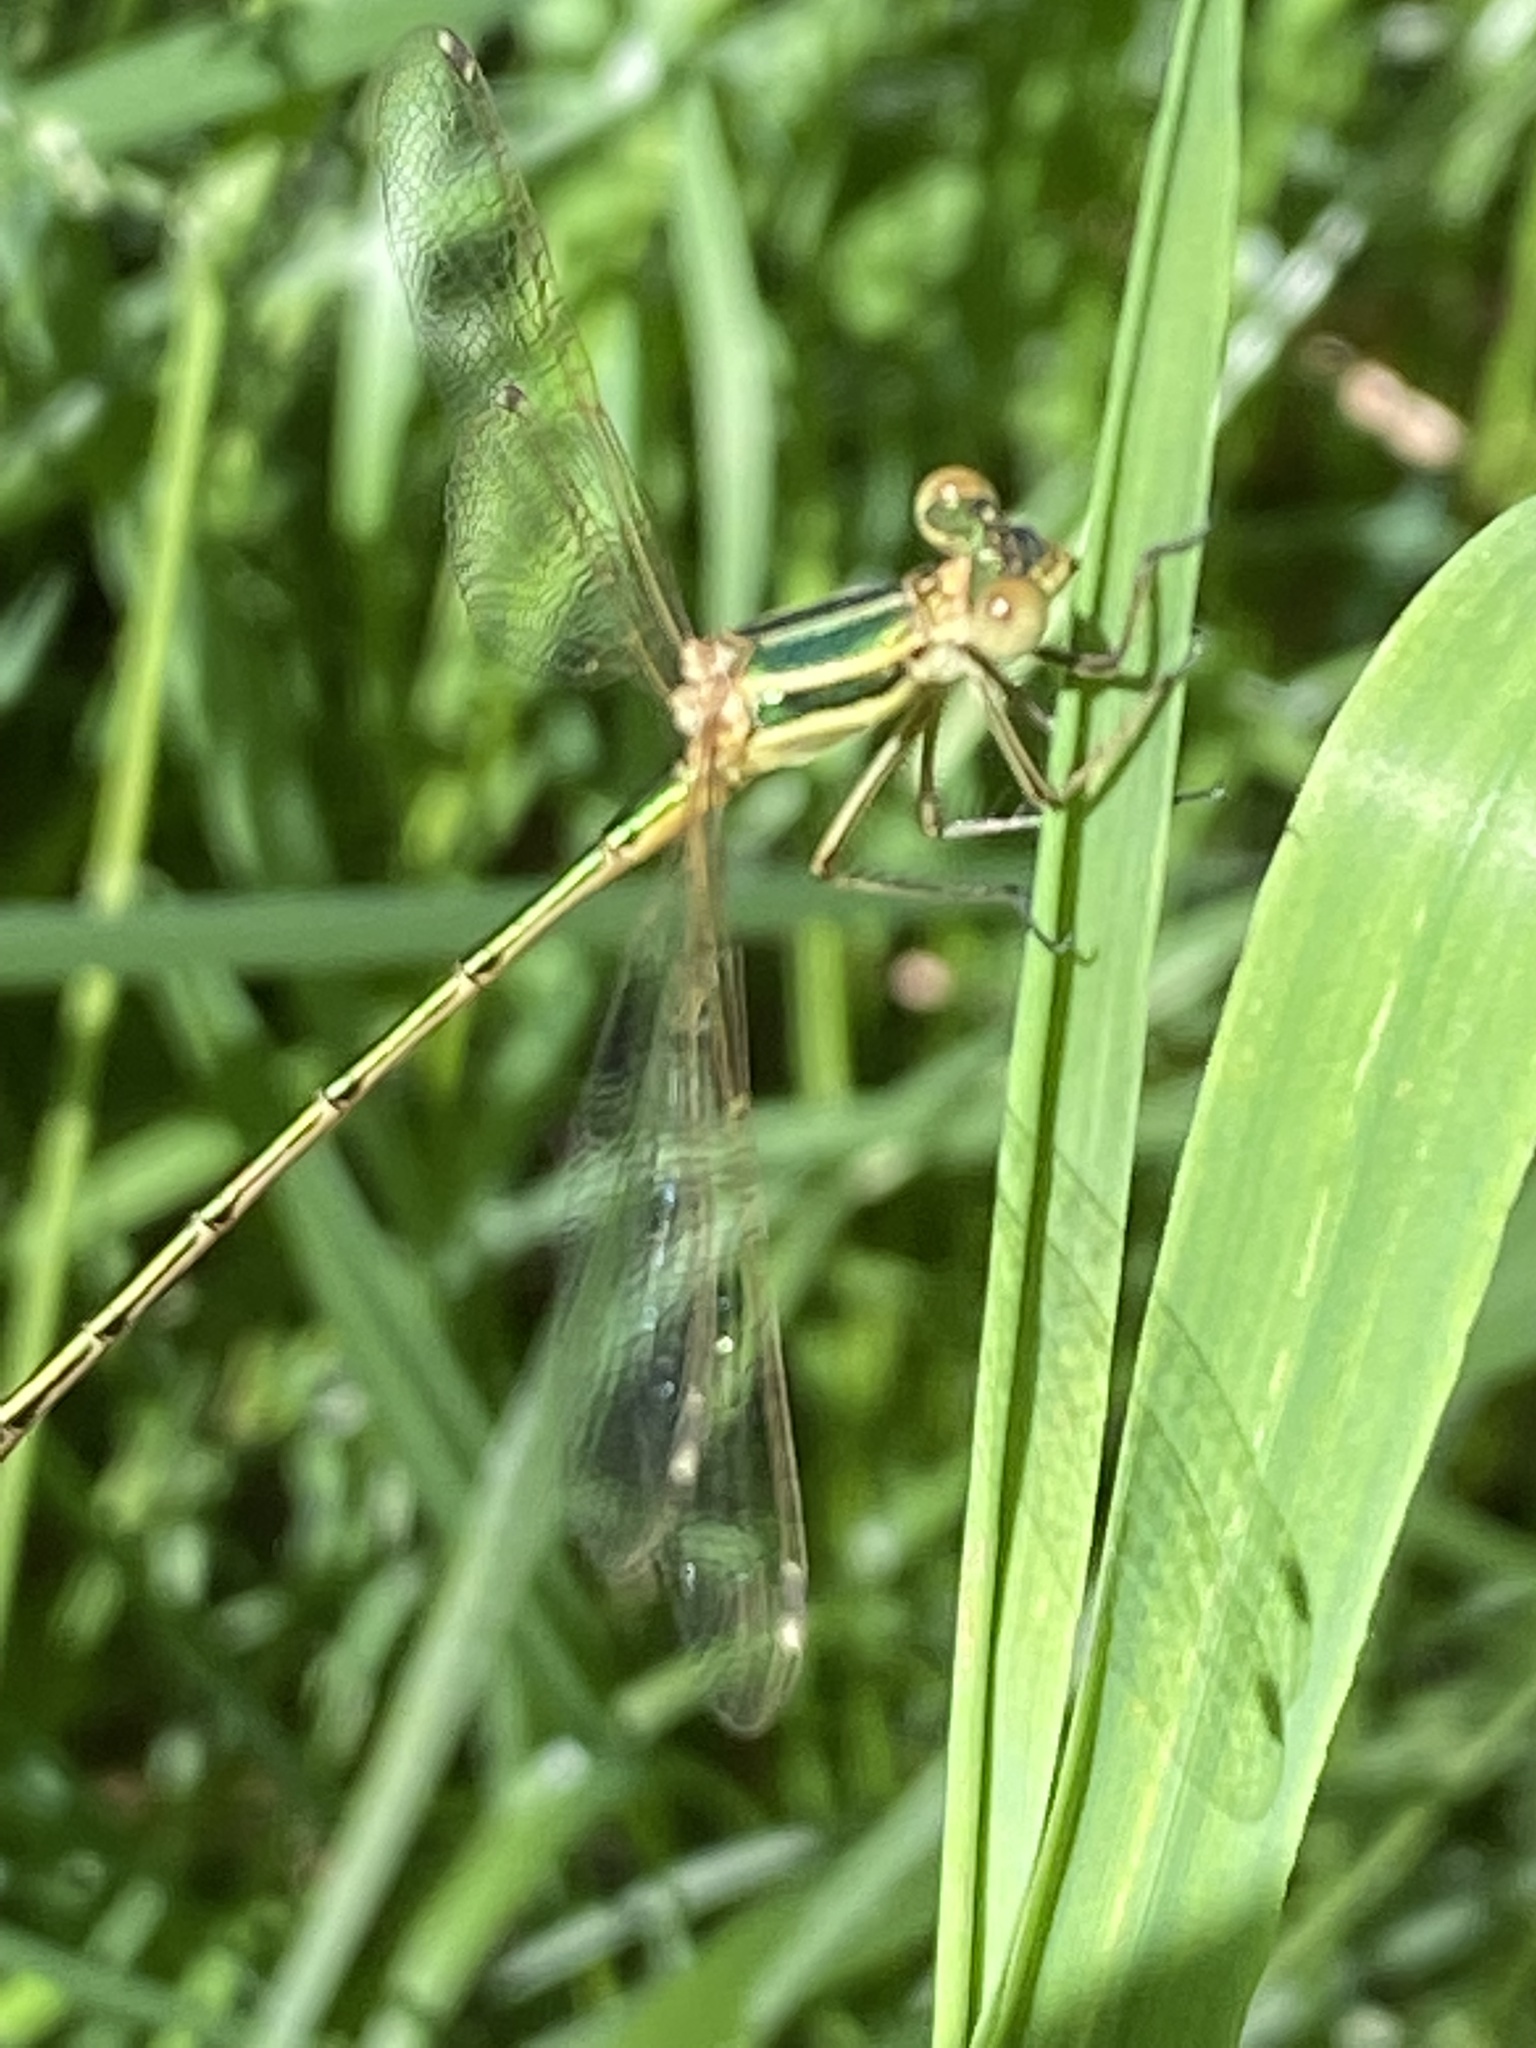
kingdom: Animalia
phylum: Arthropoda
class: Insecta
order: Odonata
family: Lestidae
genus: Lestes
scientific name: Lestes barbarus
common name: Migrant spreadwing
